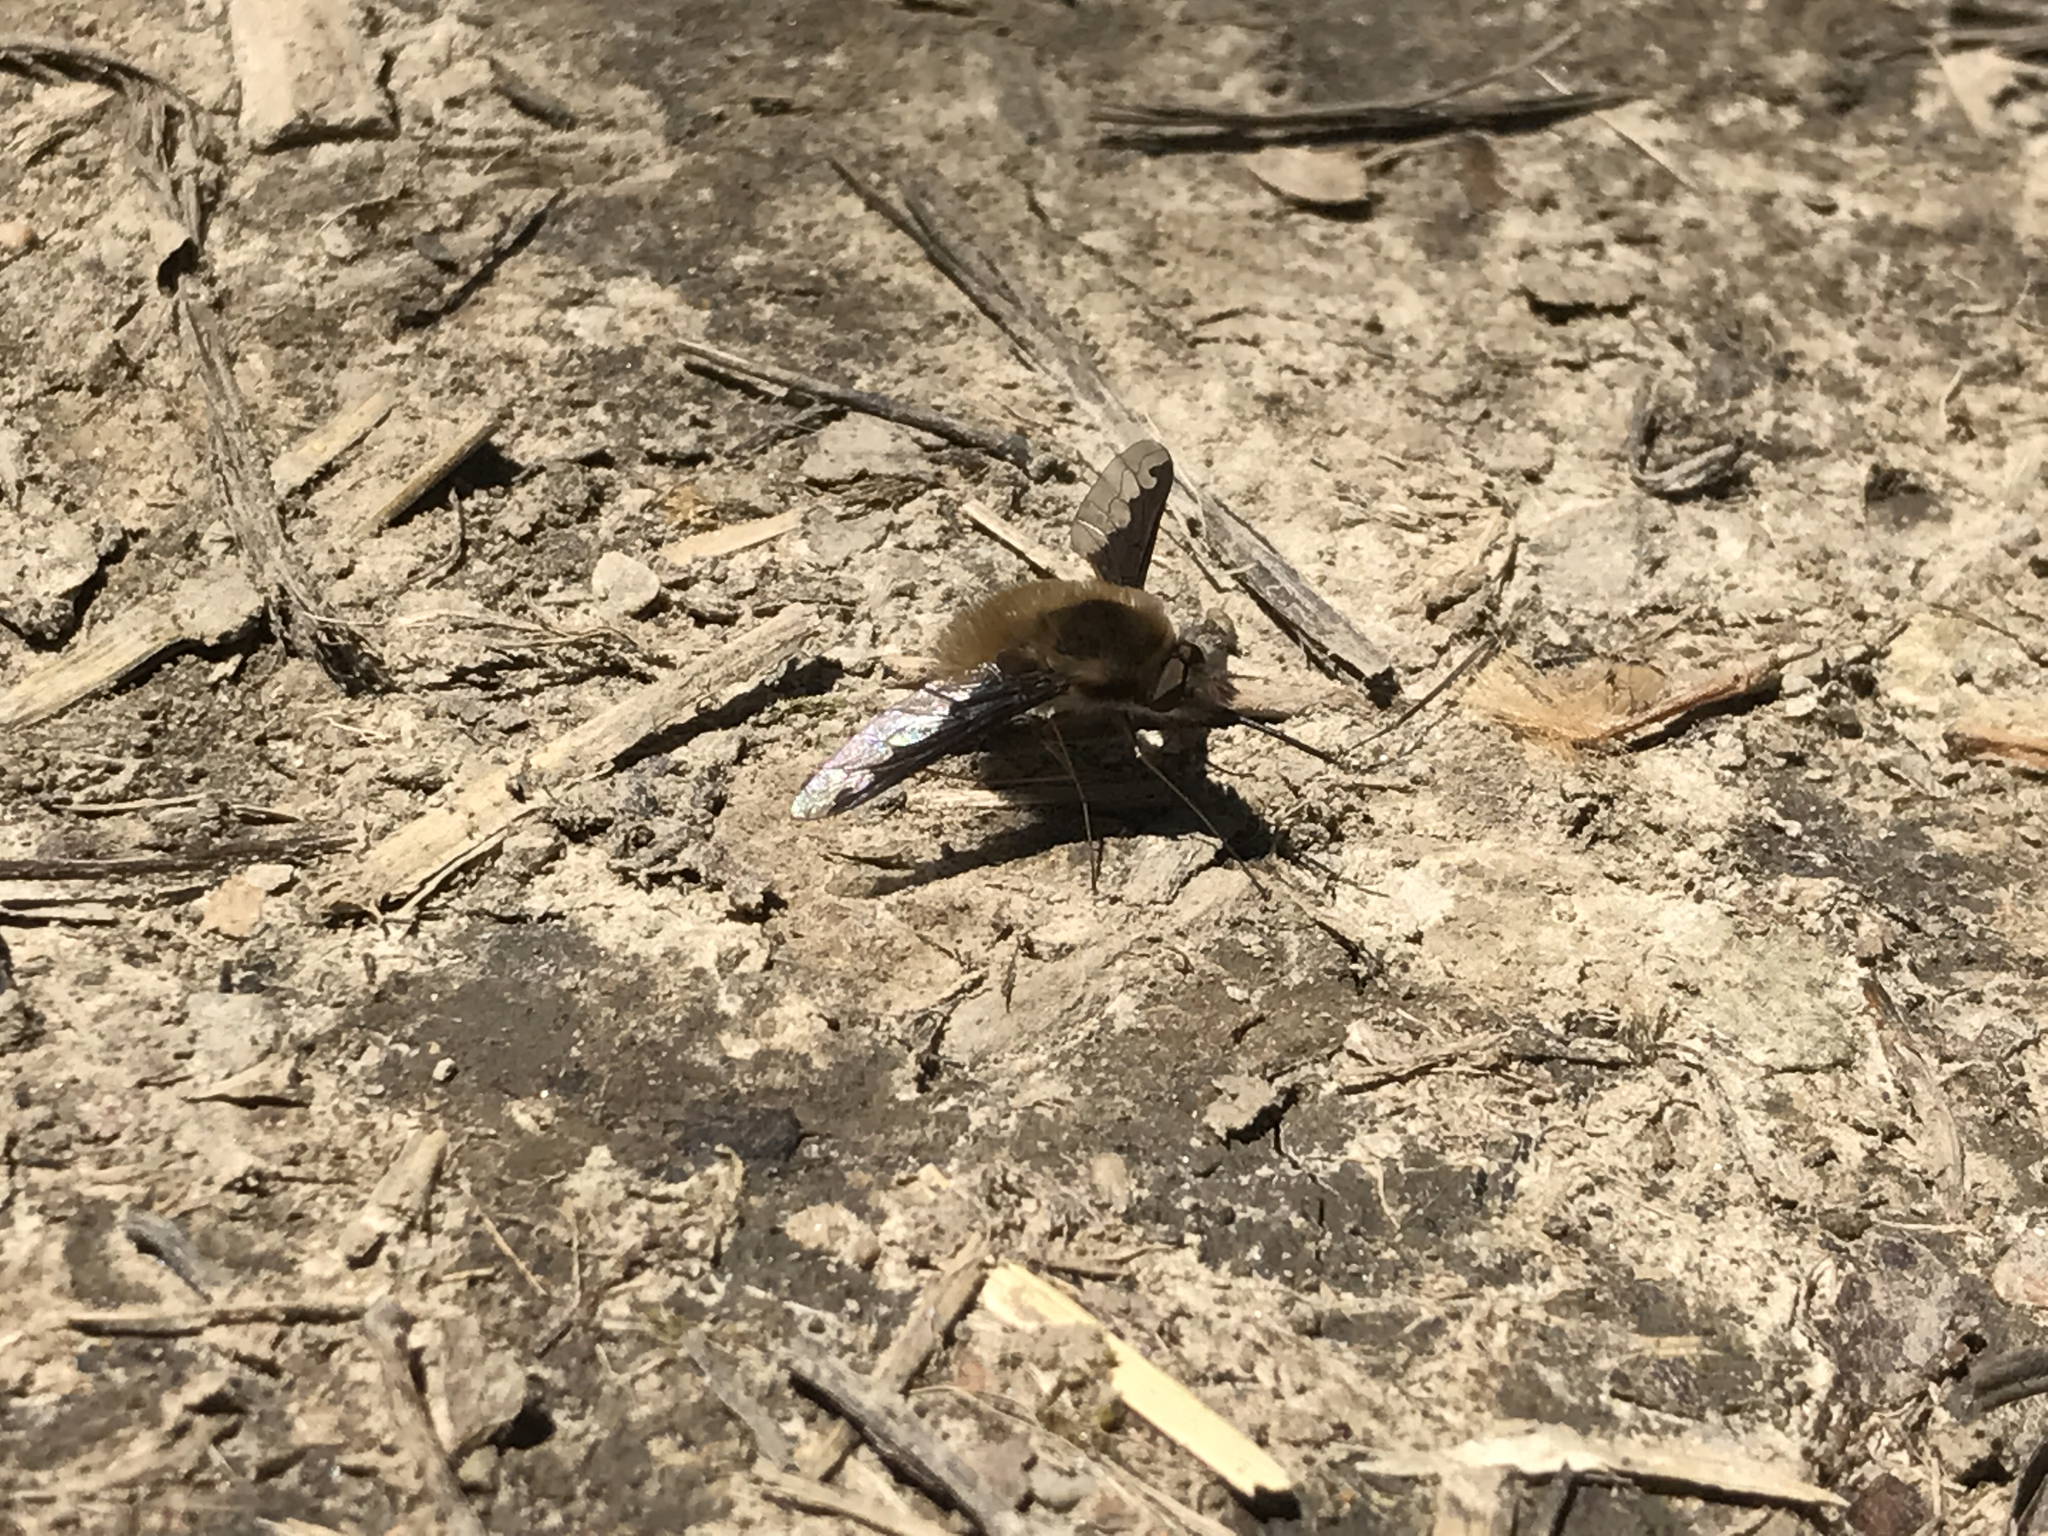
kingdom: Animalia
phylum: Arthropoda
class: Insecta
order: Diptera
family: Bombyliidae
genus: Bombylius
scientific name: Bombylius major
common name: Bee fly
